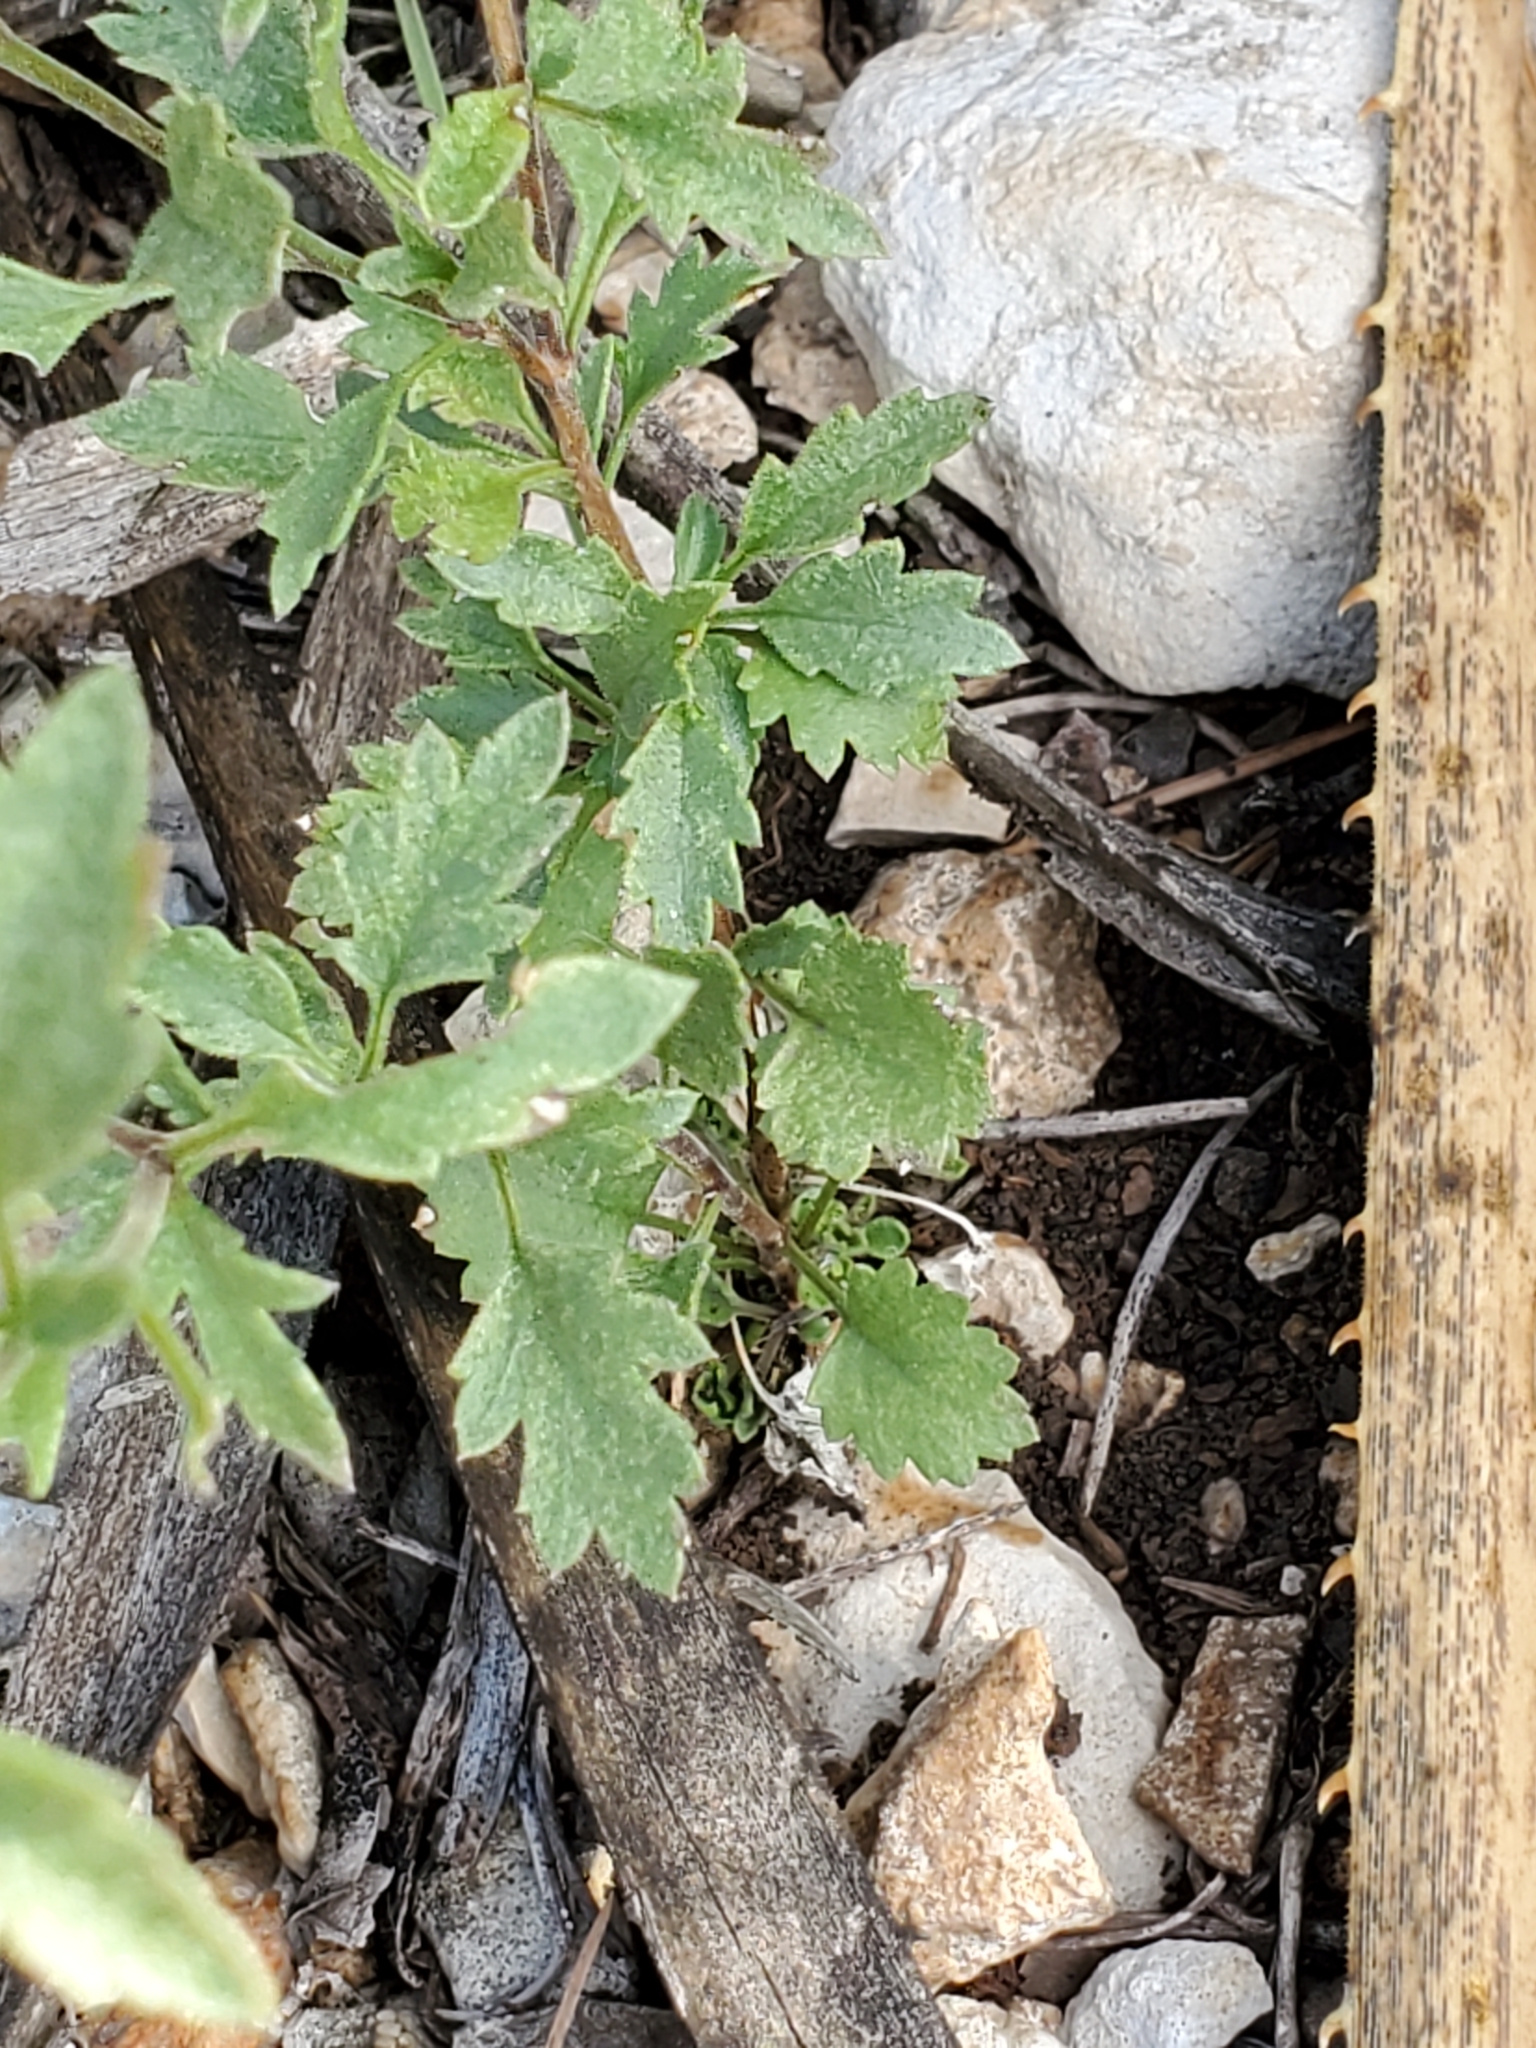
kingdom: Plantae
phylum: Tracheophyta
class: Magnoliopsida
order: Ericales
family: Polemoniaceae
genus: Giliastrum
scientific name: Giliastrum incisum
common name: Splitleaf gilia
